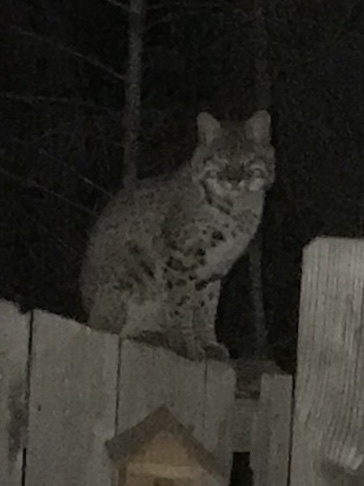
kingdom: Animalia
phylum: Chordata
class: Mammalia
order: Carnivora
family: Felidae
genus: Lynx
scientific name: Lynx rufus
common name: Bobcat
